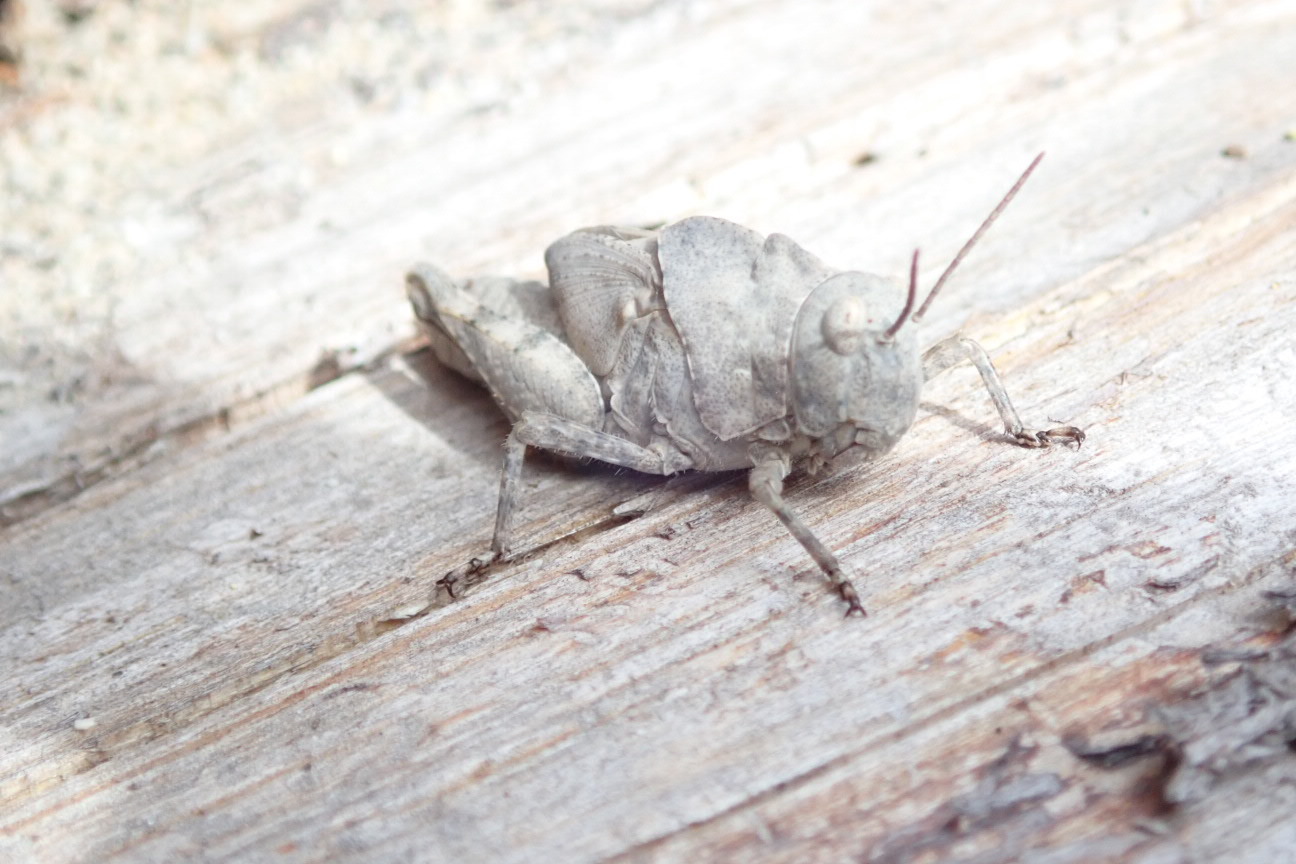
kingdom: Animalia
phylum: Arthropoda
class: Insecta
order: Orthoptera
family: Acrididae
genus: Dissosteira
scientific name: Dissosteira carolina
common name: Carolina grasshopper
